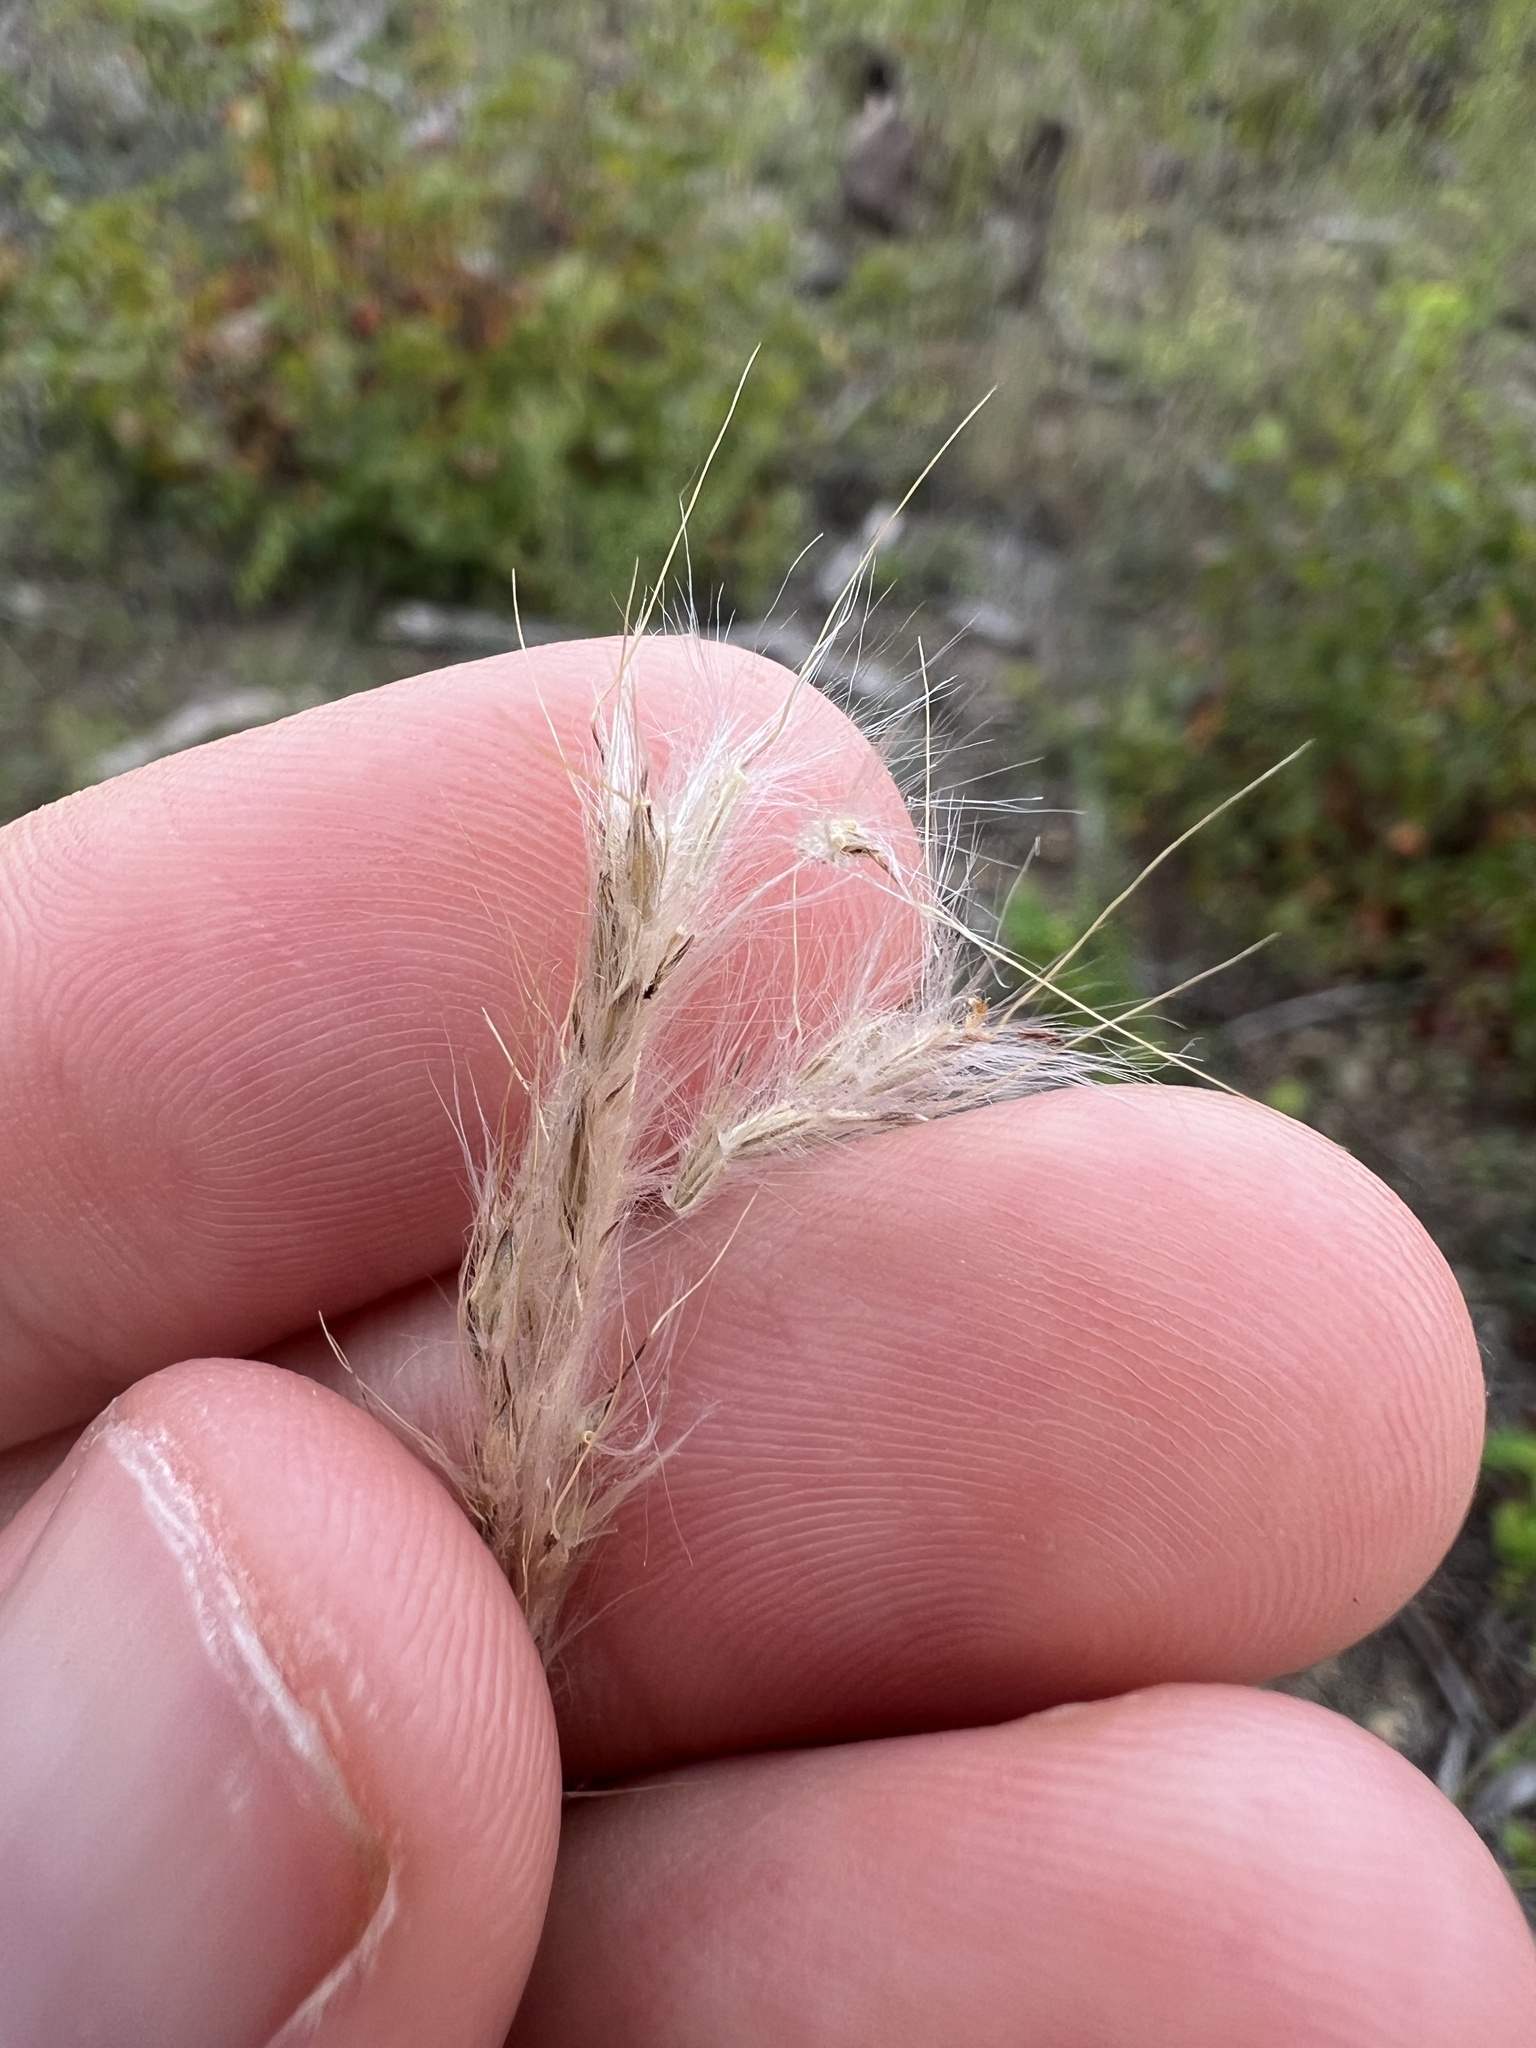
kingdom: Plantae
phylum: Tracheophyta
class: Liliopsida
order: Poales
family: Poaceae
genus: Bothriochloa
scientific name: Bothriochloa torreyana
